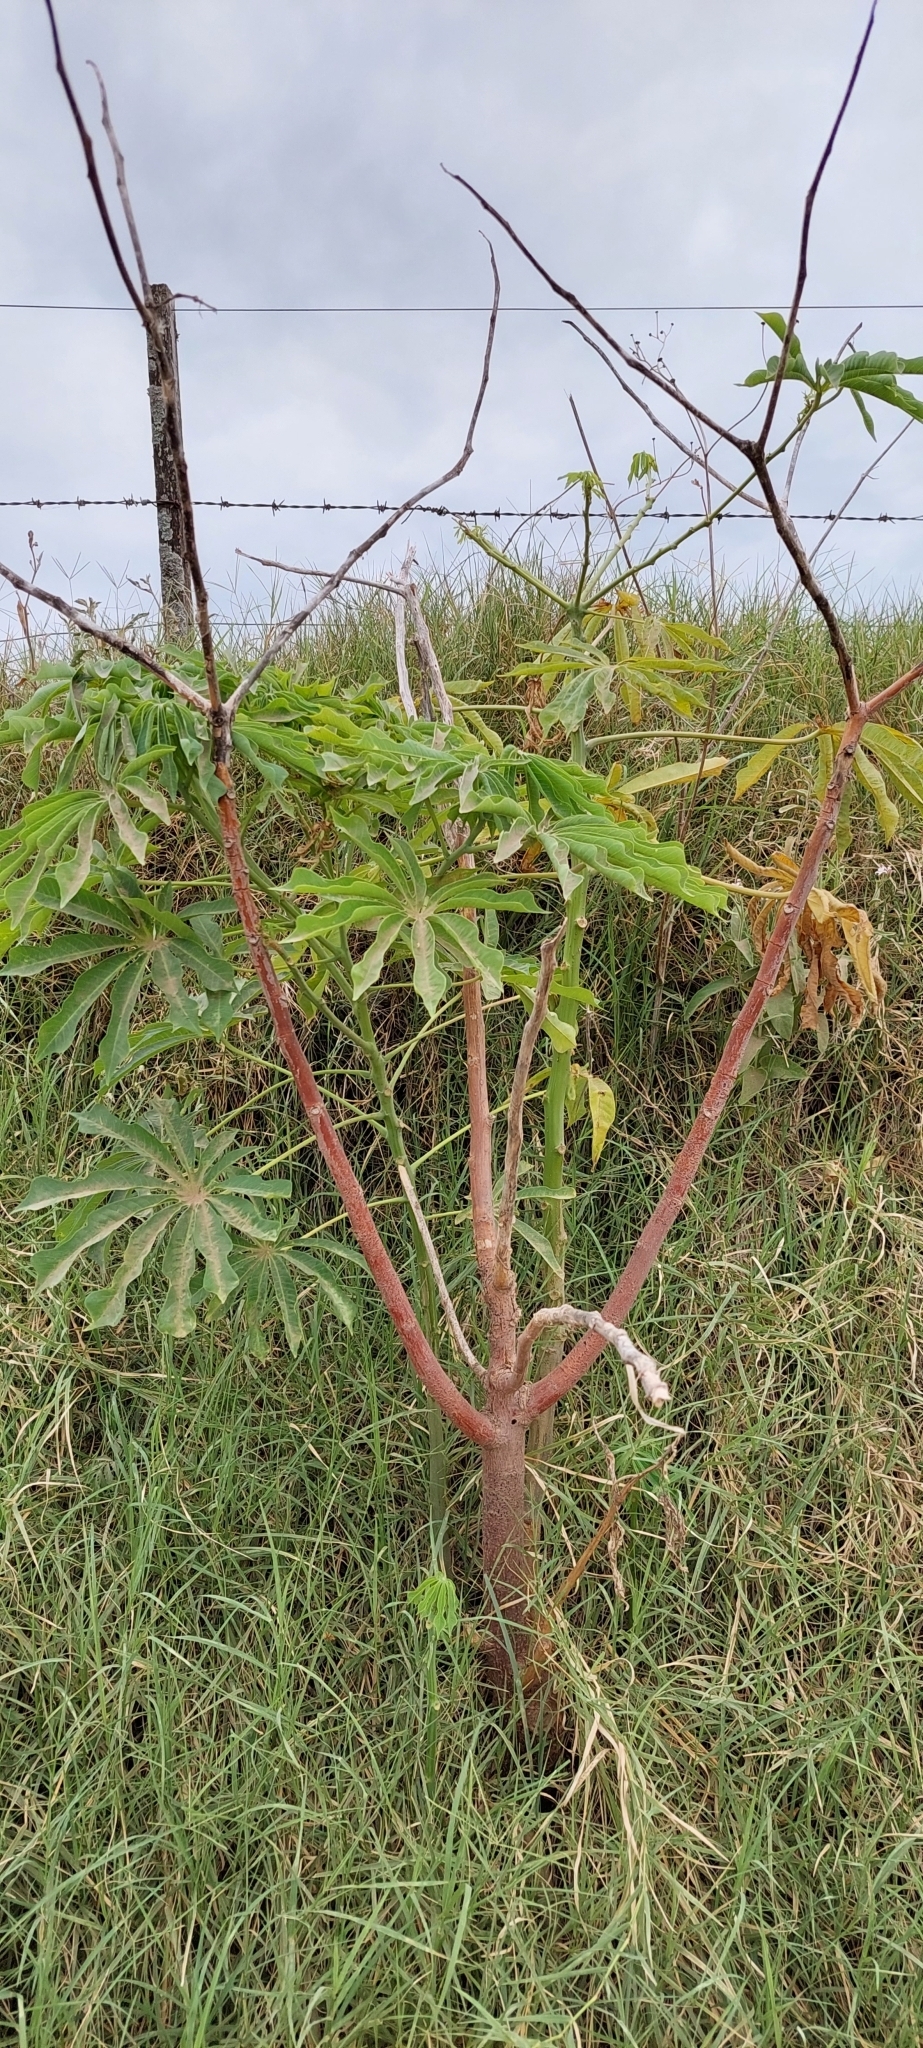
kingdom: Plantae
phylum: Tracheophyta
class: Magnoliopsida
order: Malpighiales
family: Euphorbiaceae
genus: Manihot
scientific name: Manihot grahamii
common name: Graham's manihot
